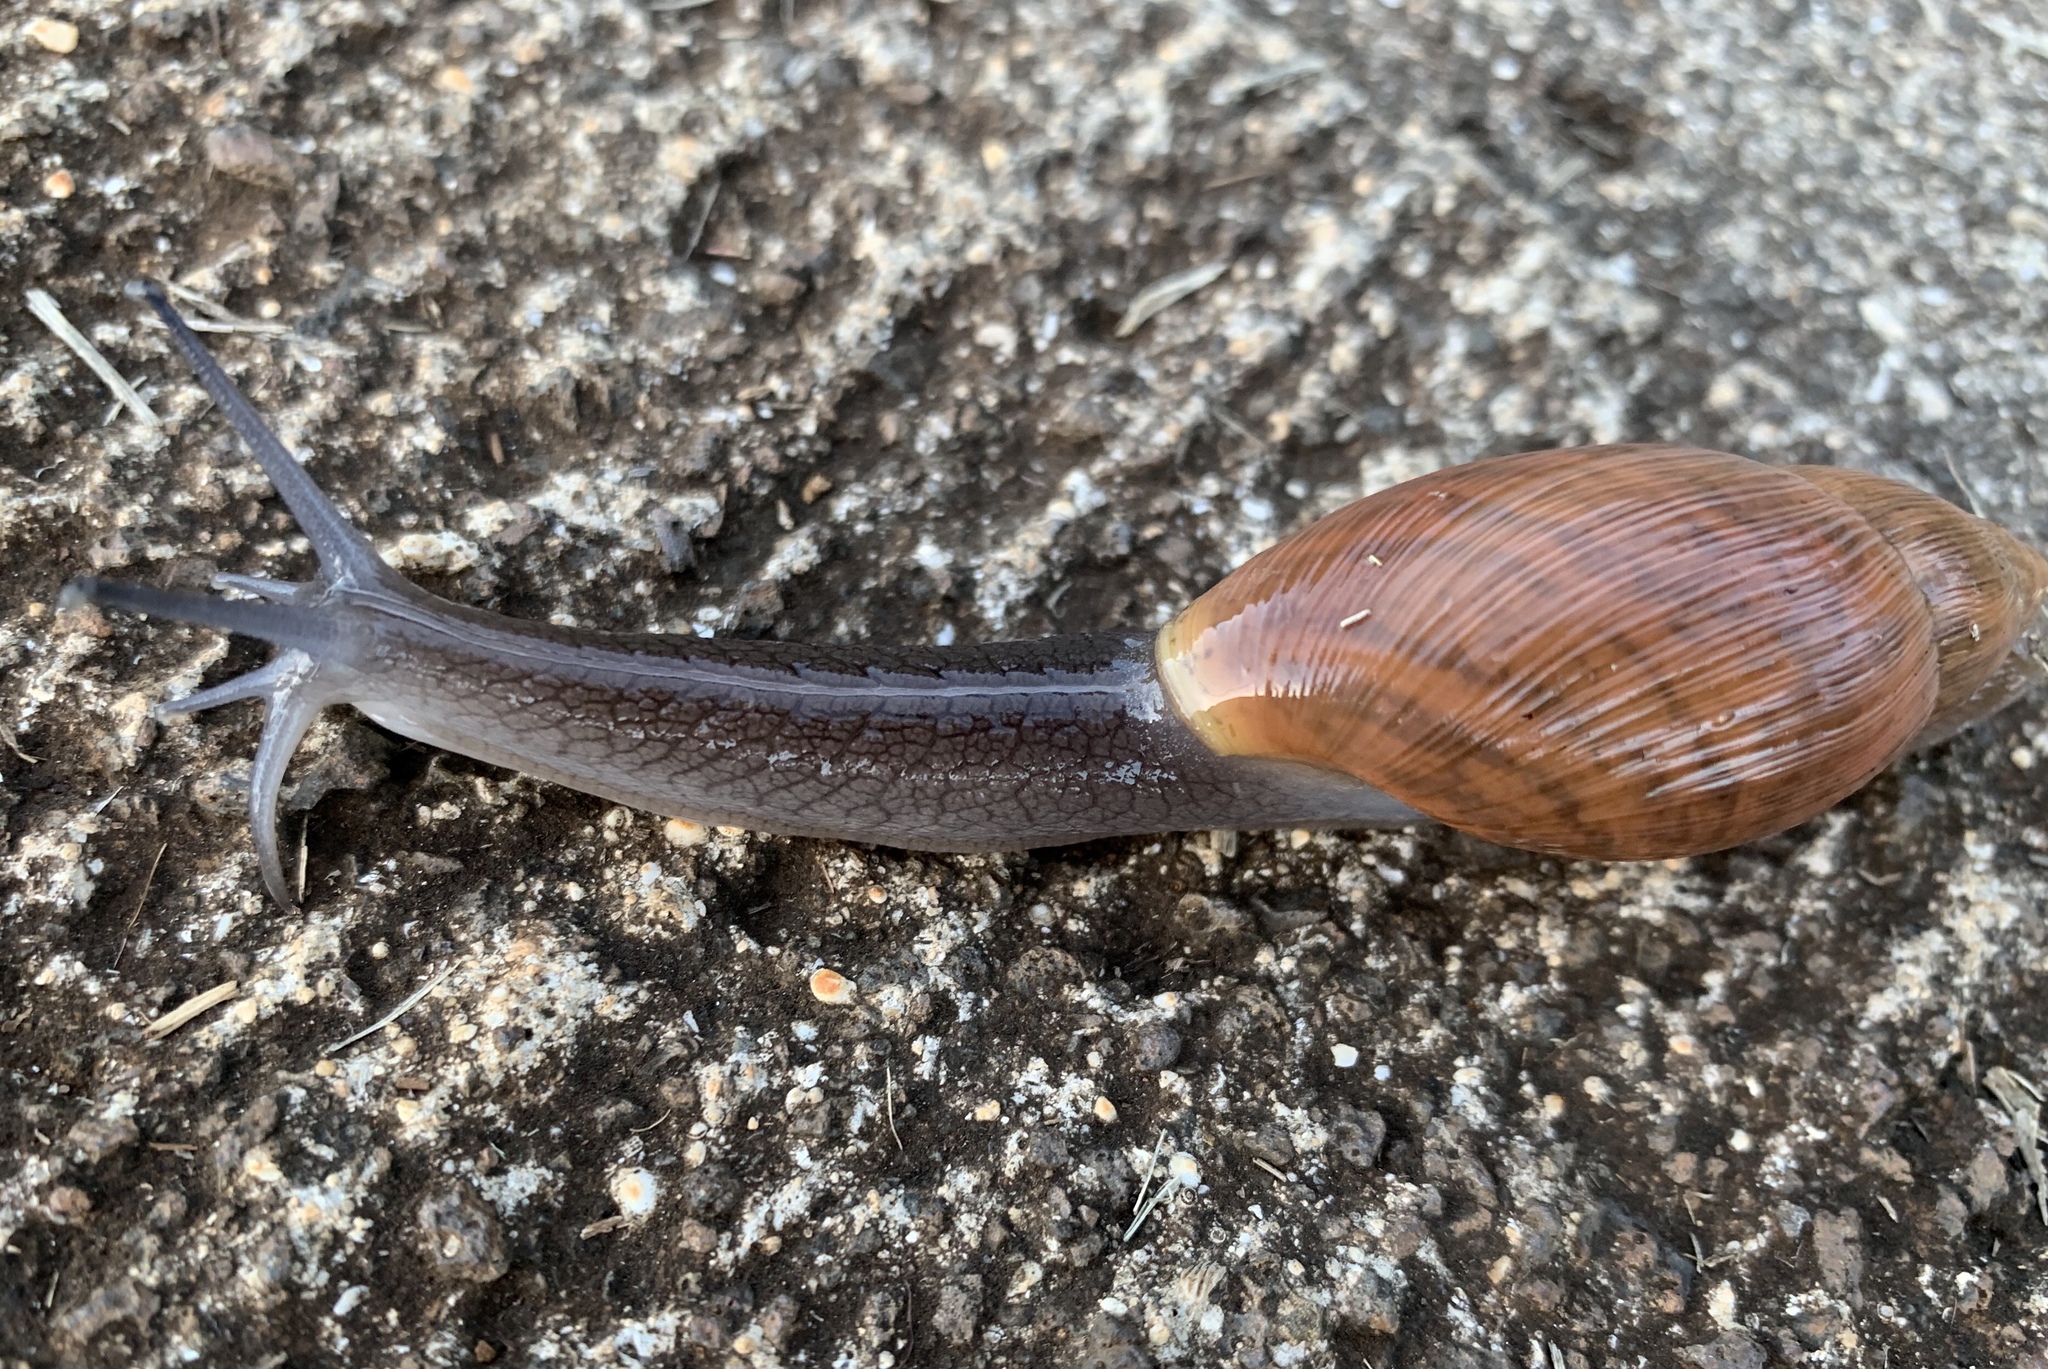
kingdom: Animalia
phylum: Mollusca
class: Gastropoda
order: Stylommatophora
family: Spiraxidae
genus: Euglandina
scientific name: Euglandina rosea
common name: Rosy wolfsnail
